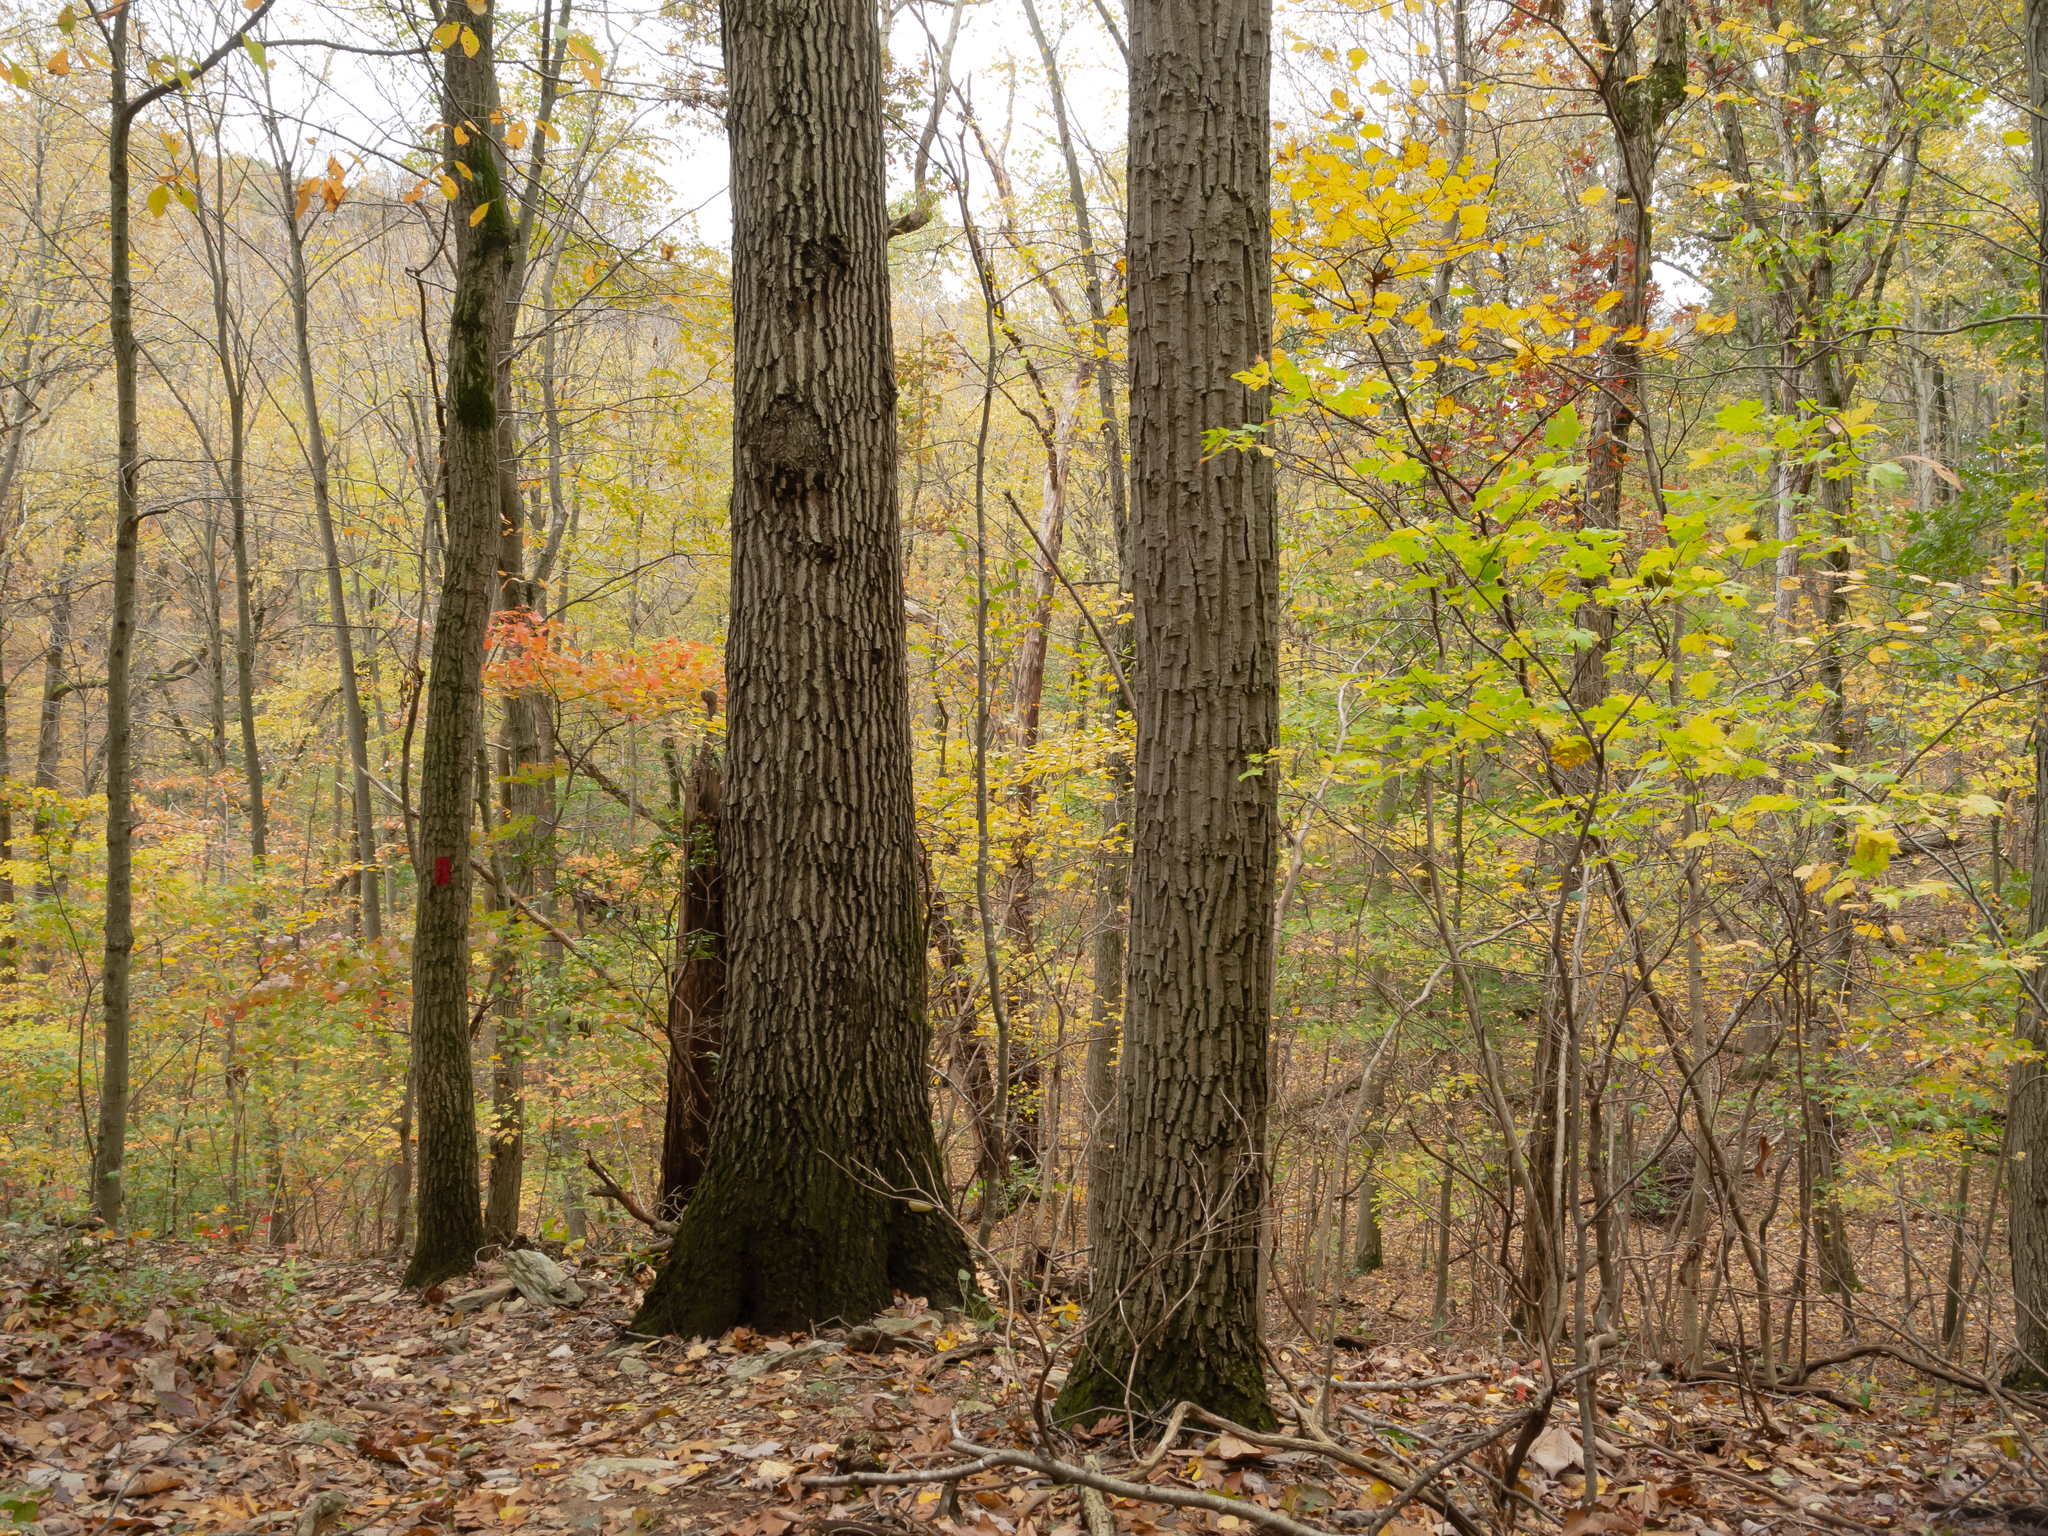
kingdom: Plantae
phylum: Tracheophyta
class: Magnoliopsida
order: Fagales
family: Fagaceae
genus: Quercus
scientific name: Quercus velutina
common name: Black oak
